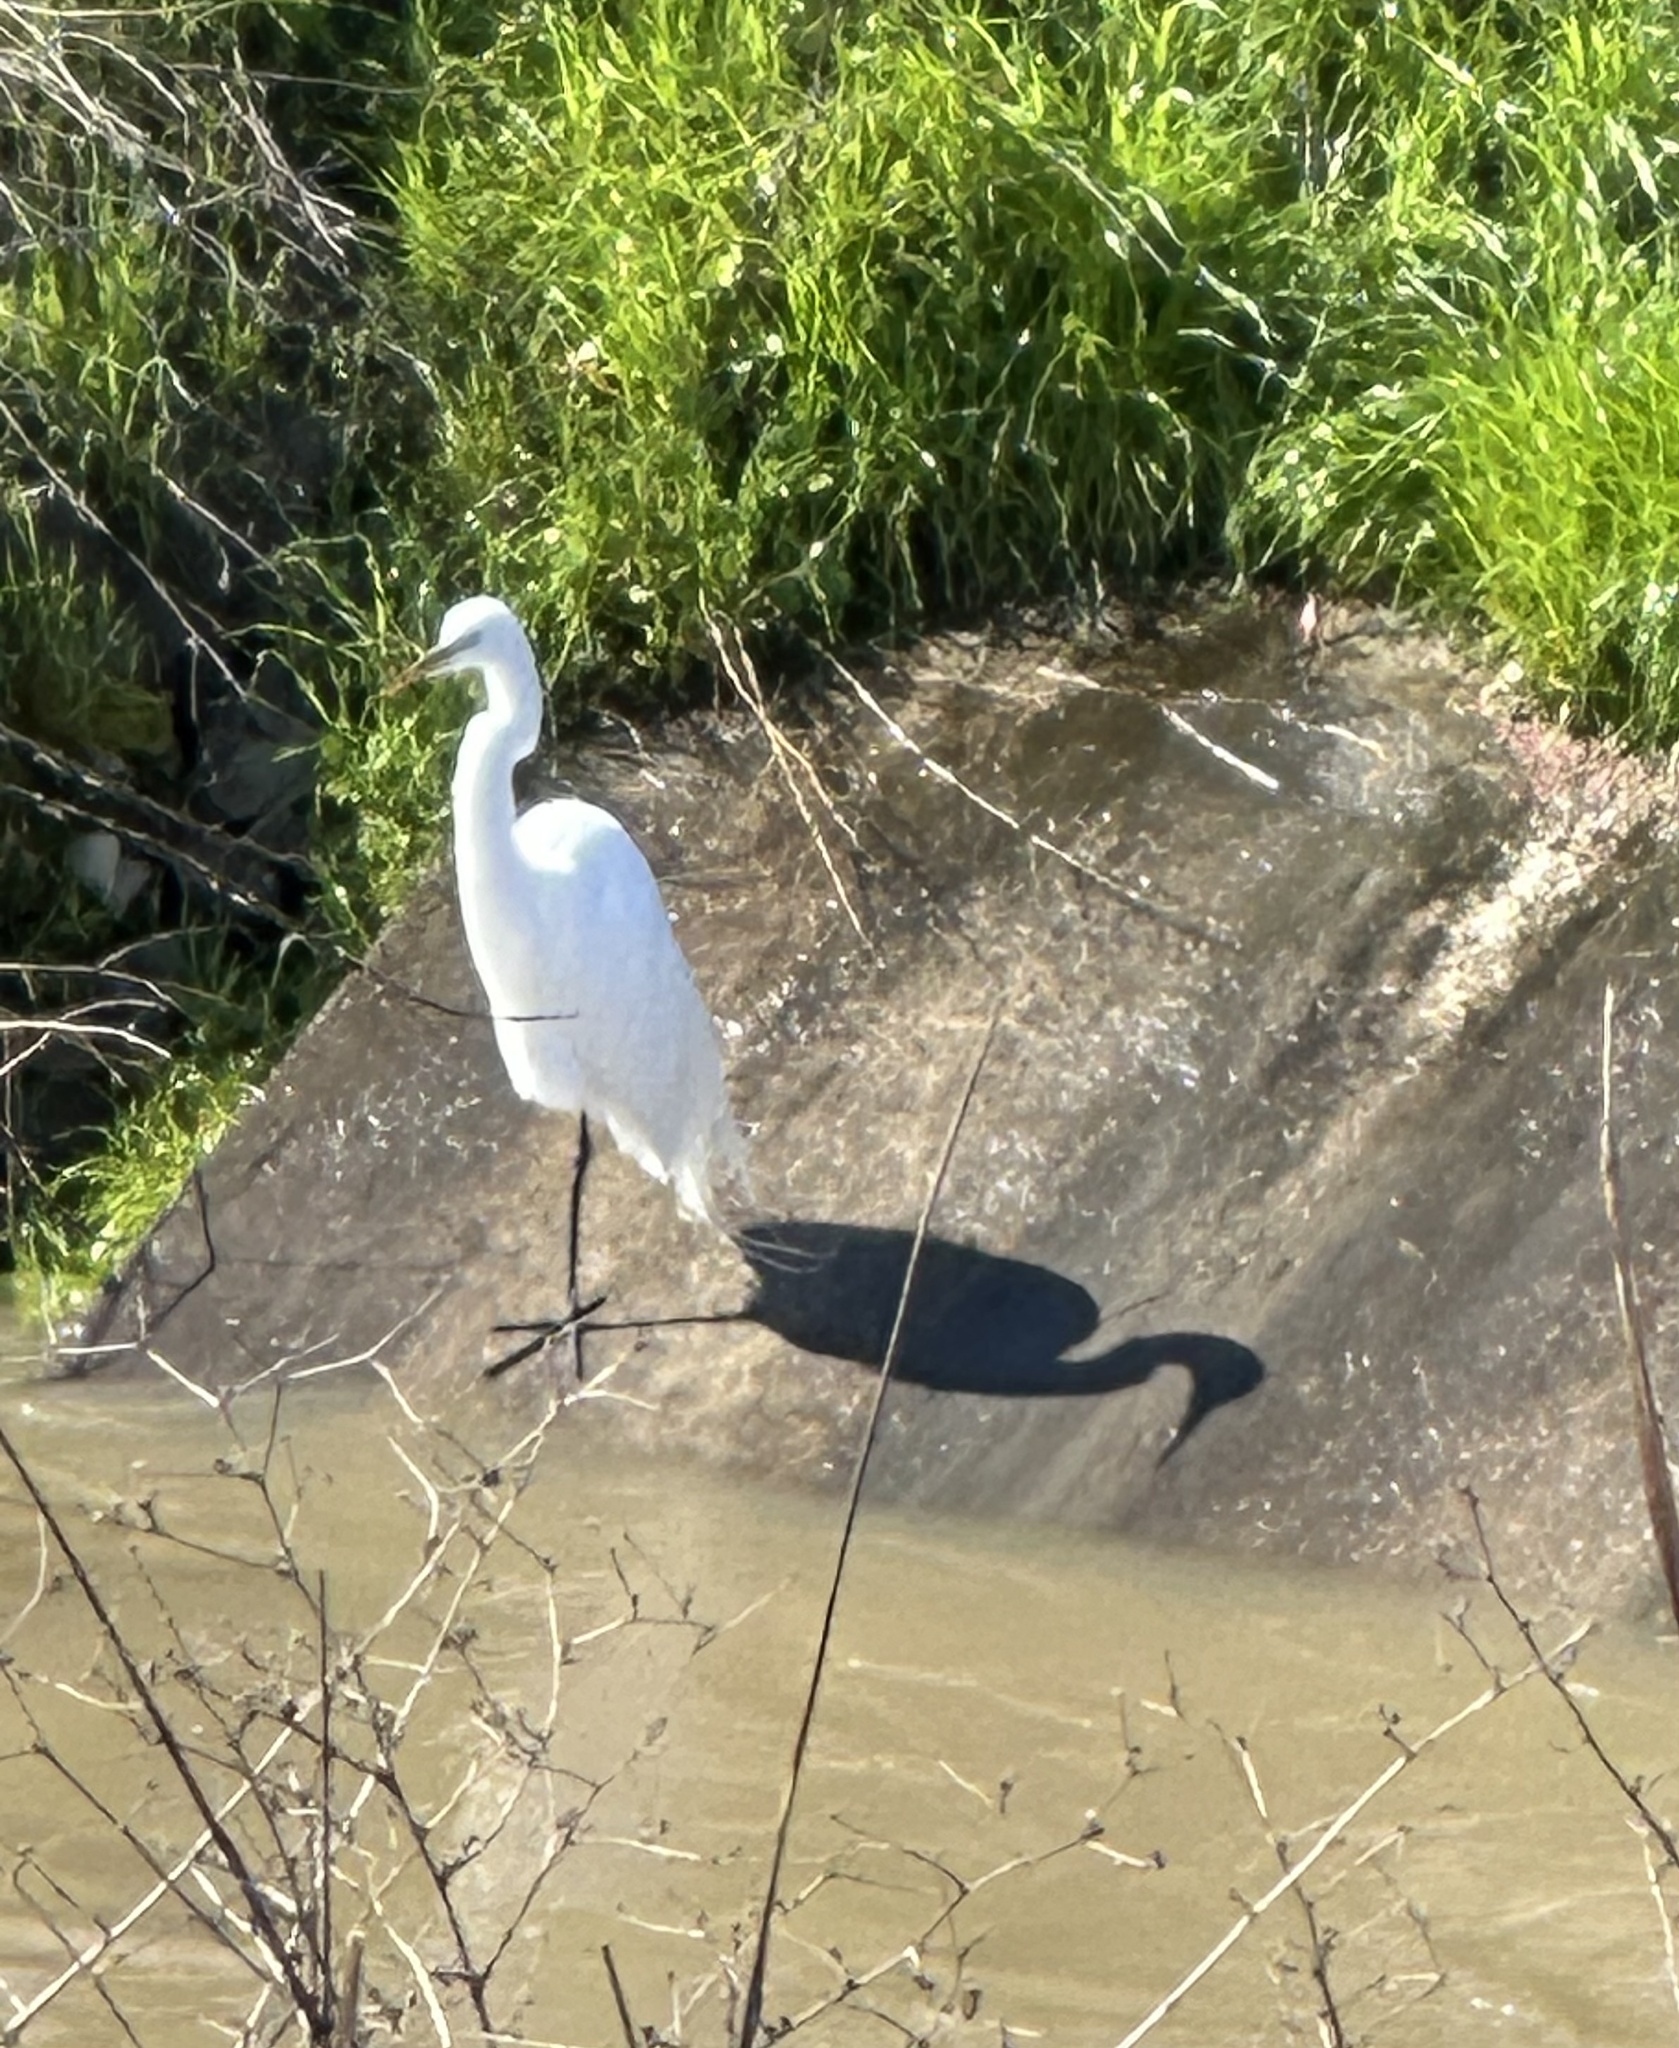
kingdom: Animalia
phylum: Chordata
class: Aves
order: Pelecaniformes
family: Ardeidae
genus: Ardea
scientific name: Ardea alba
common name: Great egret
